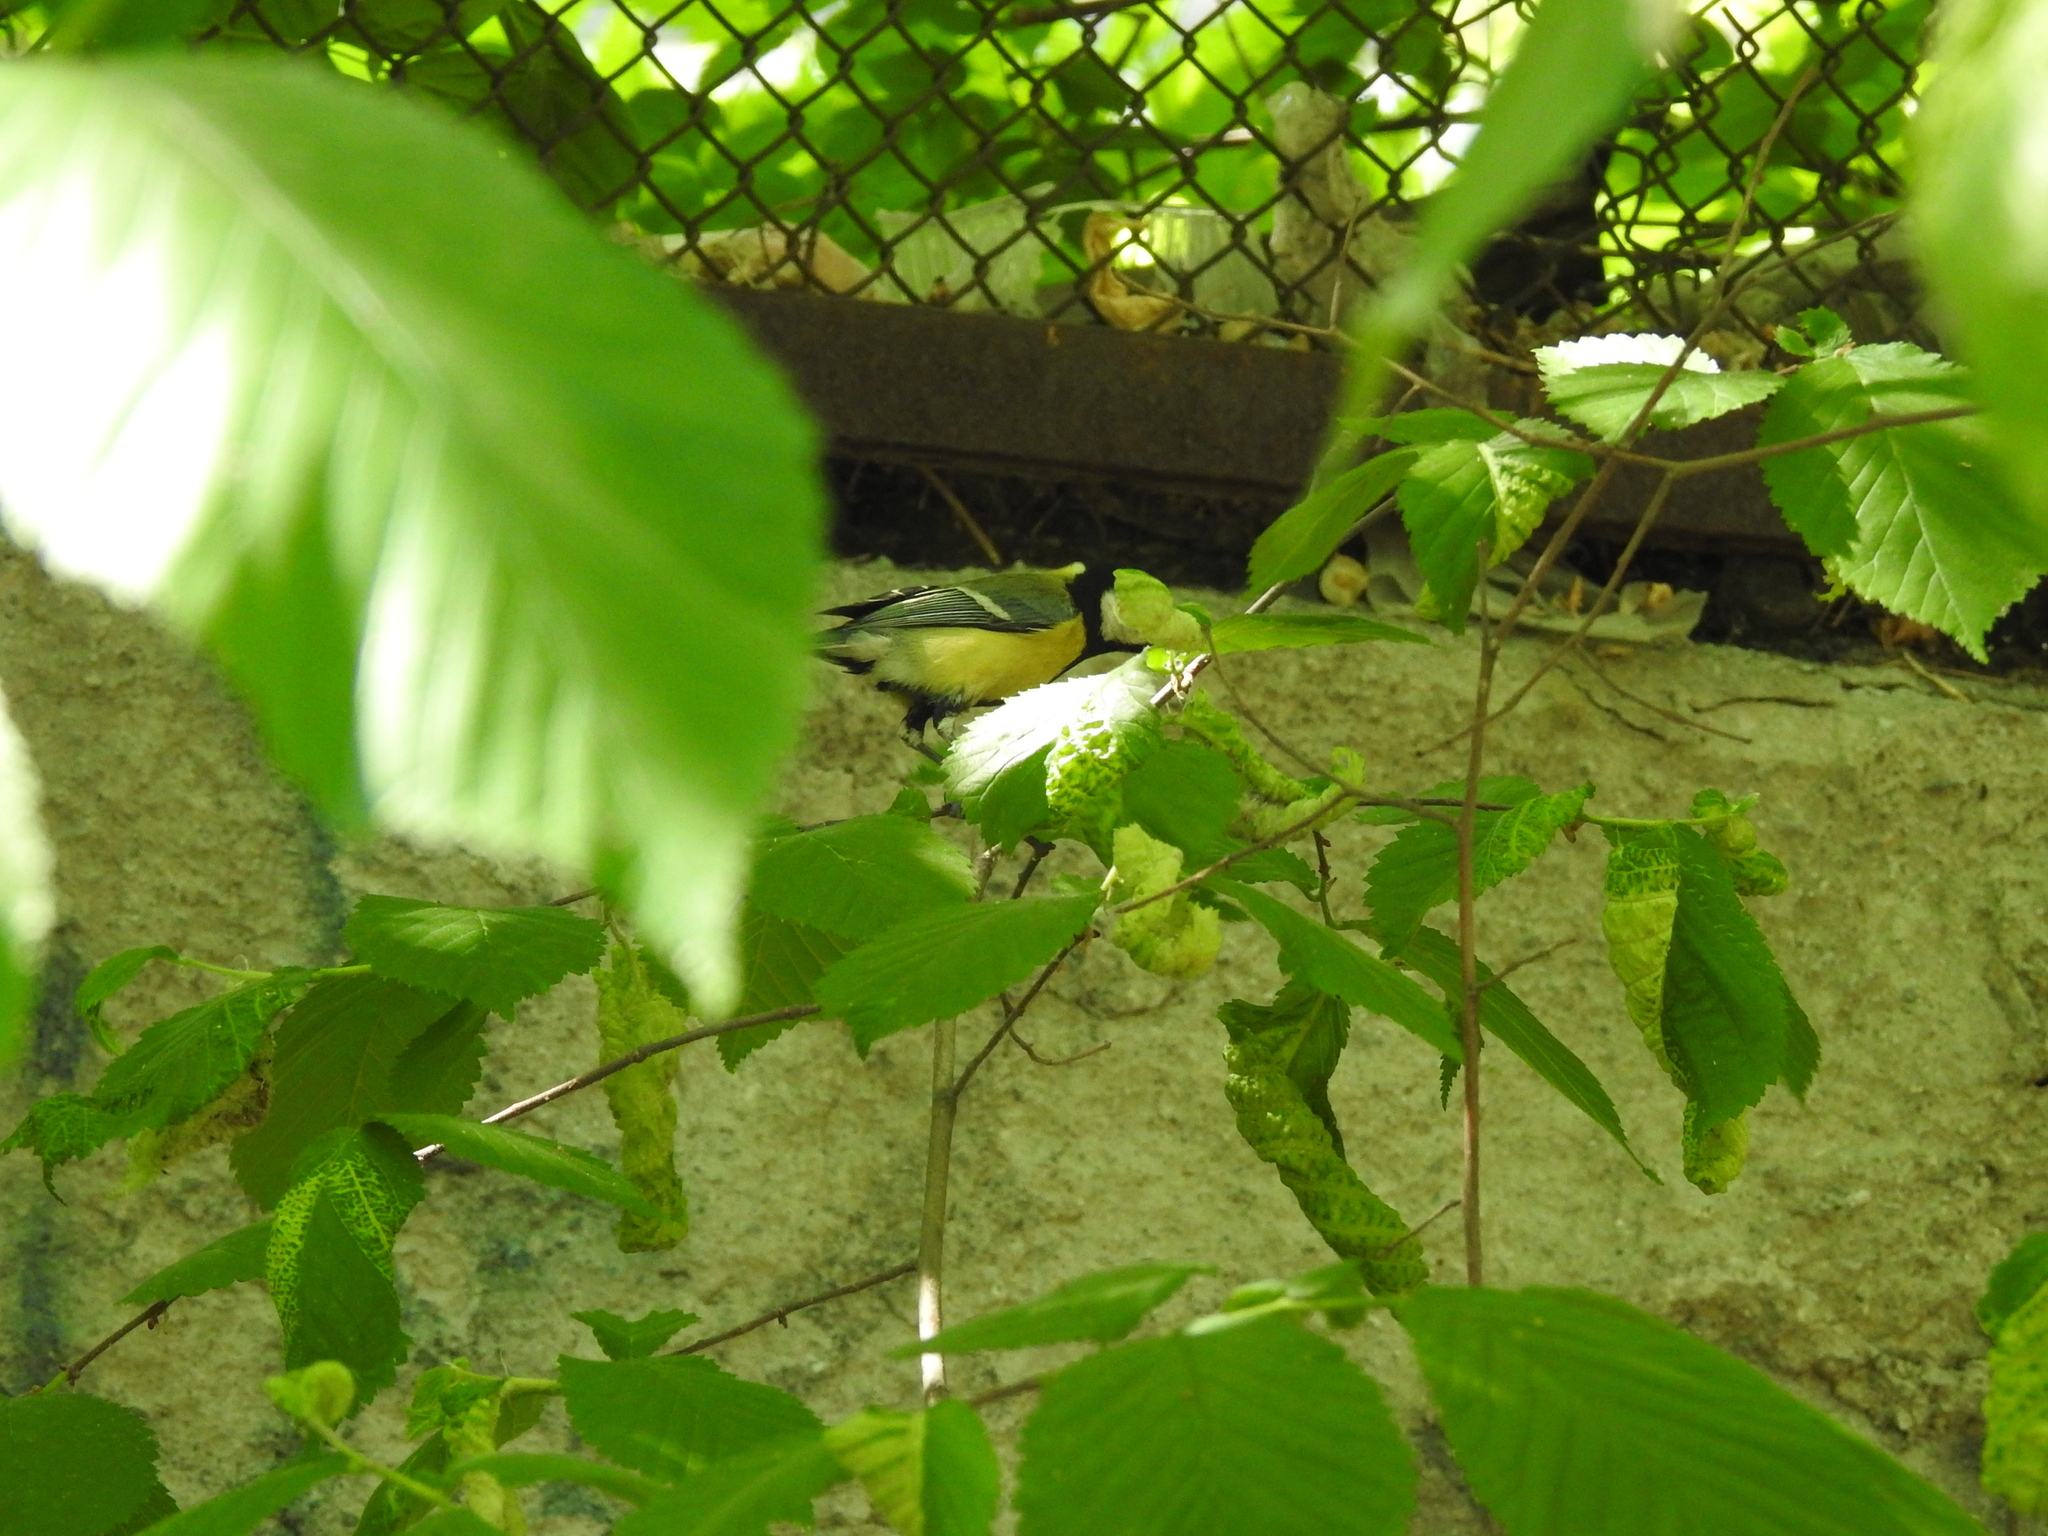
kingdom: Animalia
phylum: Chordata
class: Aves
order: Passeriformes
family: Paridae
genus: Parus
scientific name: Parus major
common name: Great tit
